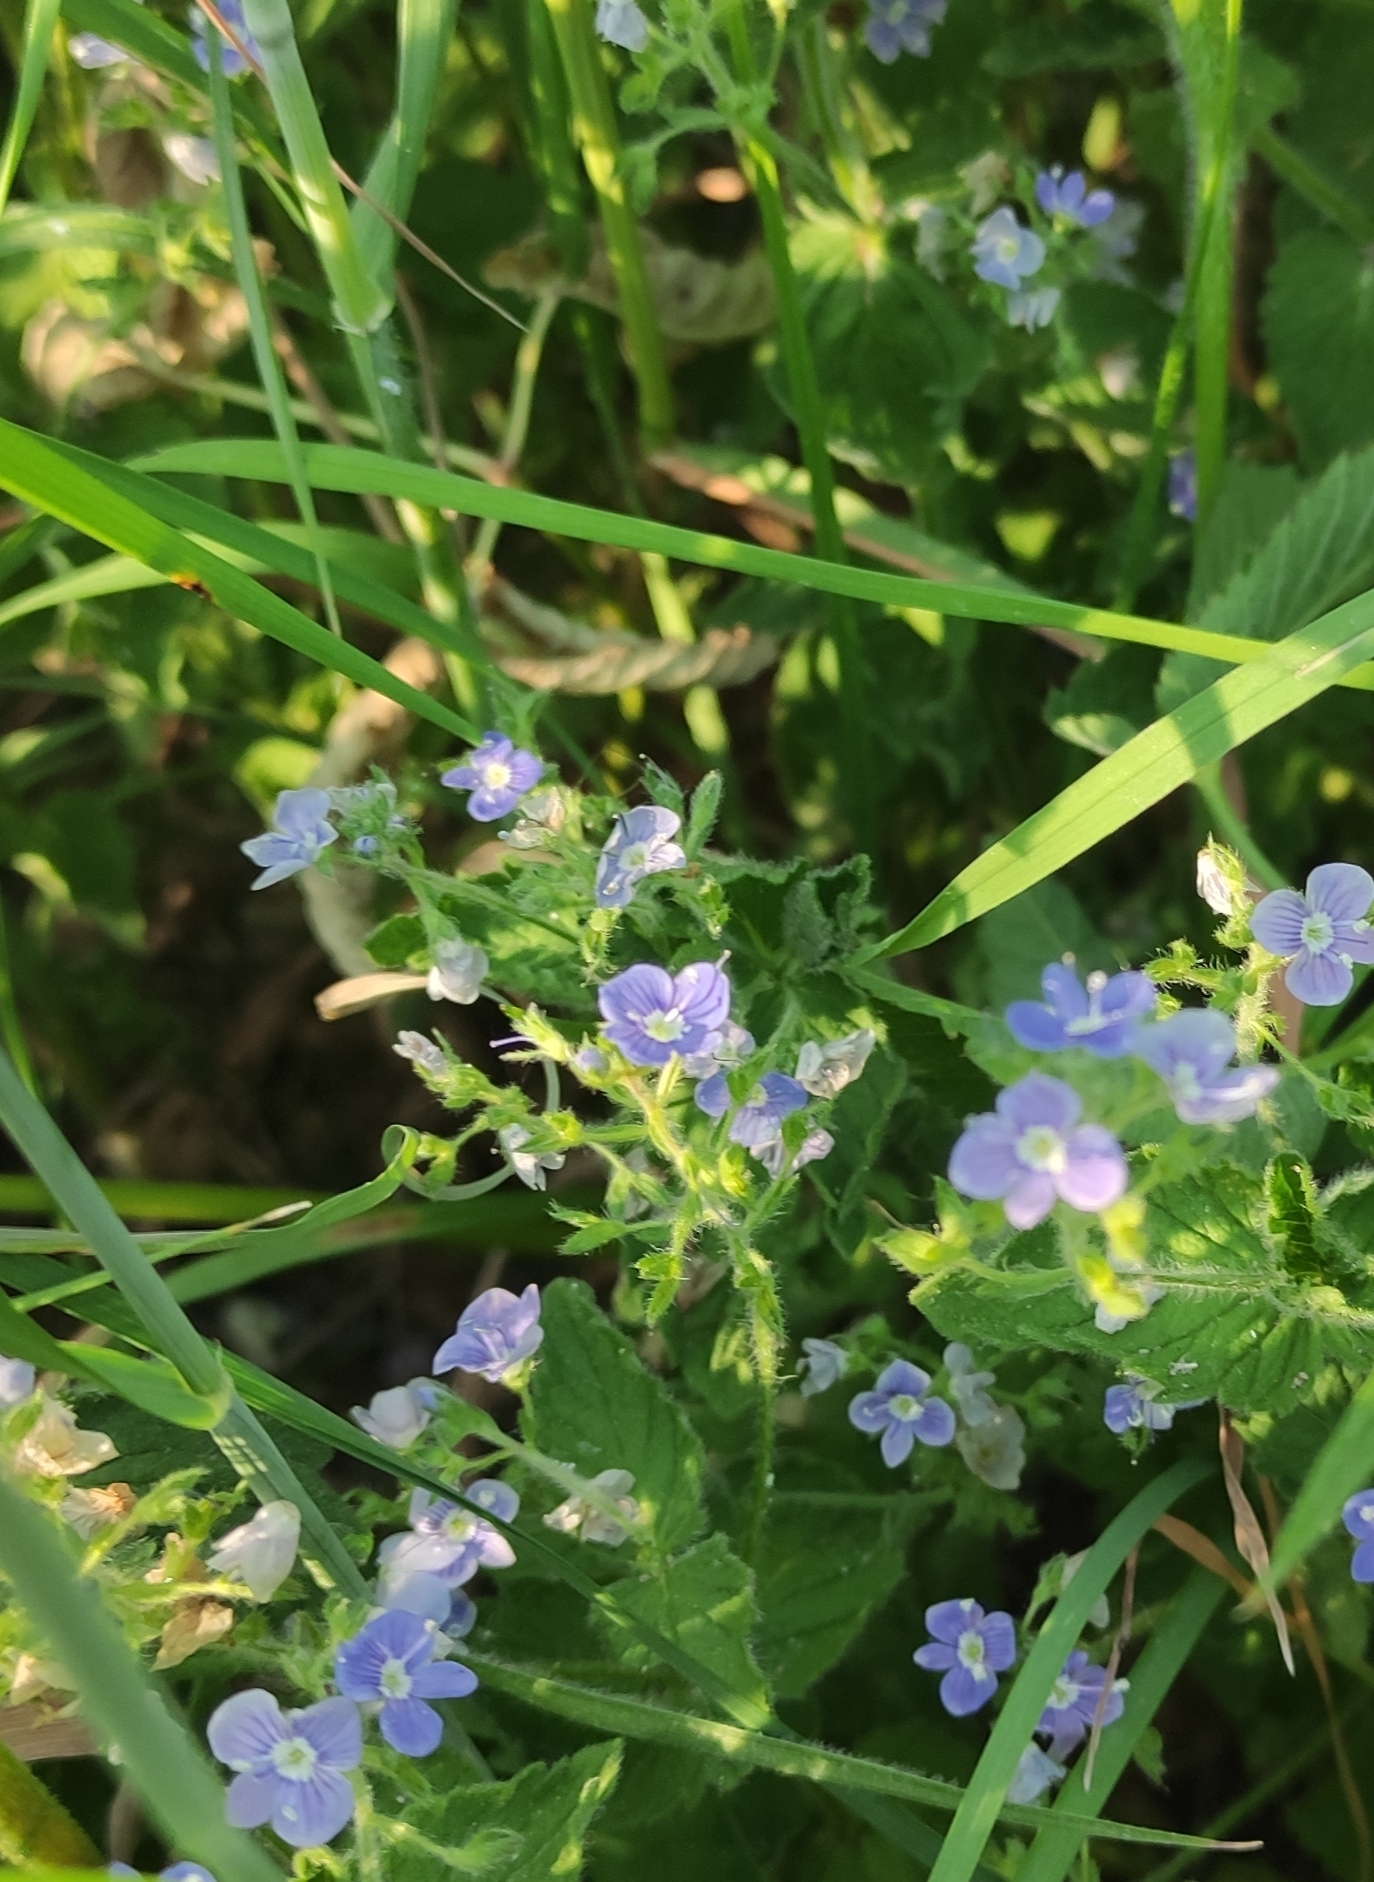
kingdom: Plantae
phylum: Tracheophyta
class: Magnoliopsida
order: Lamiales
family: Plantaginaceae
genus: Veronica
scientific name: Veronica chamaedrys
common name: Germander speedwell
